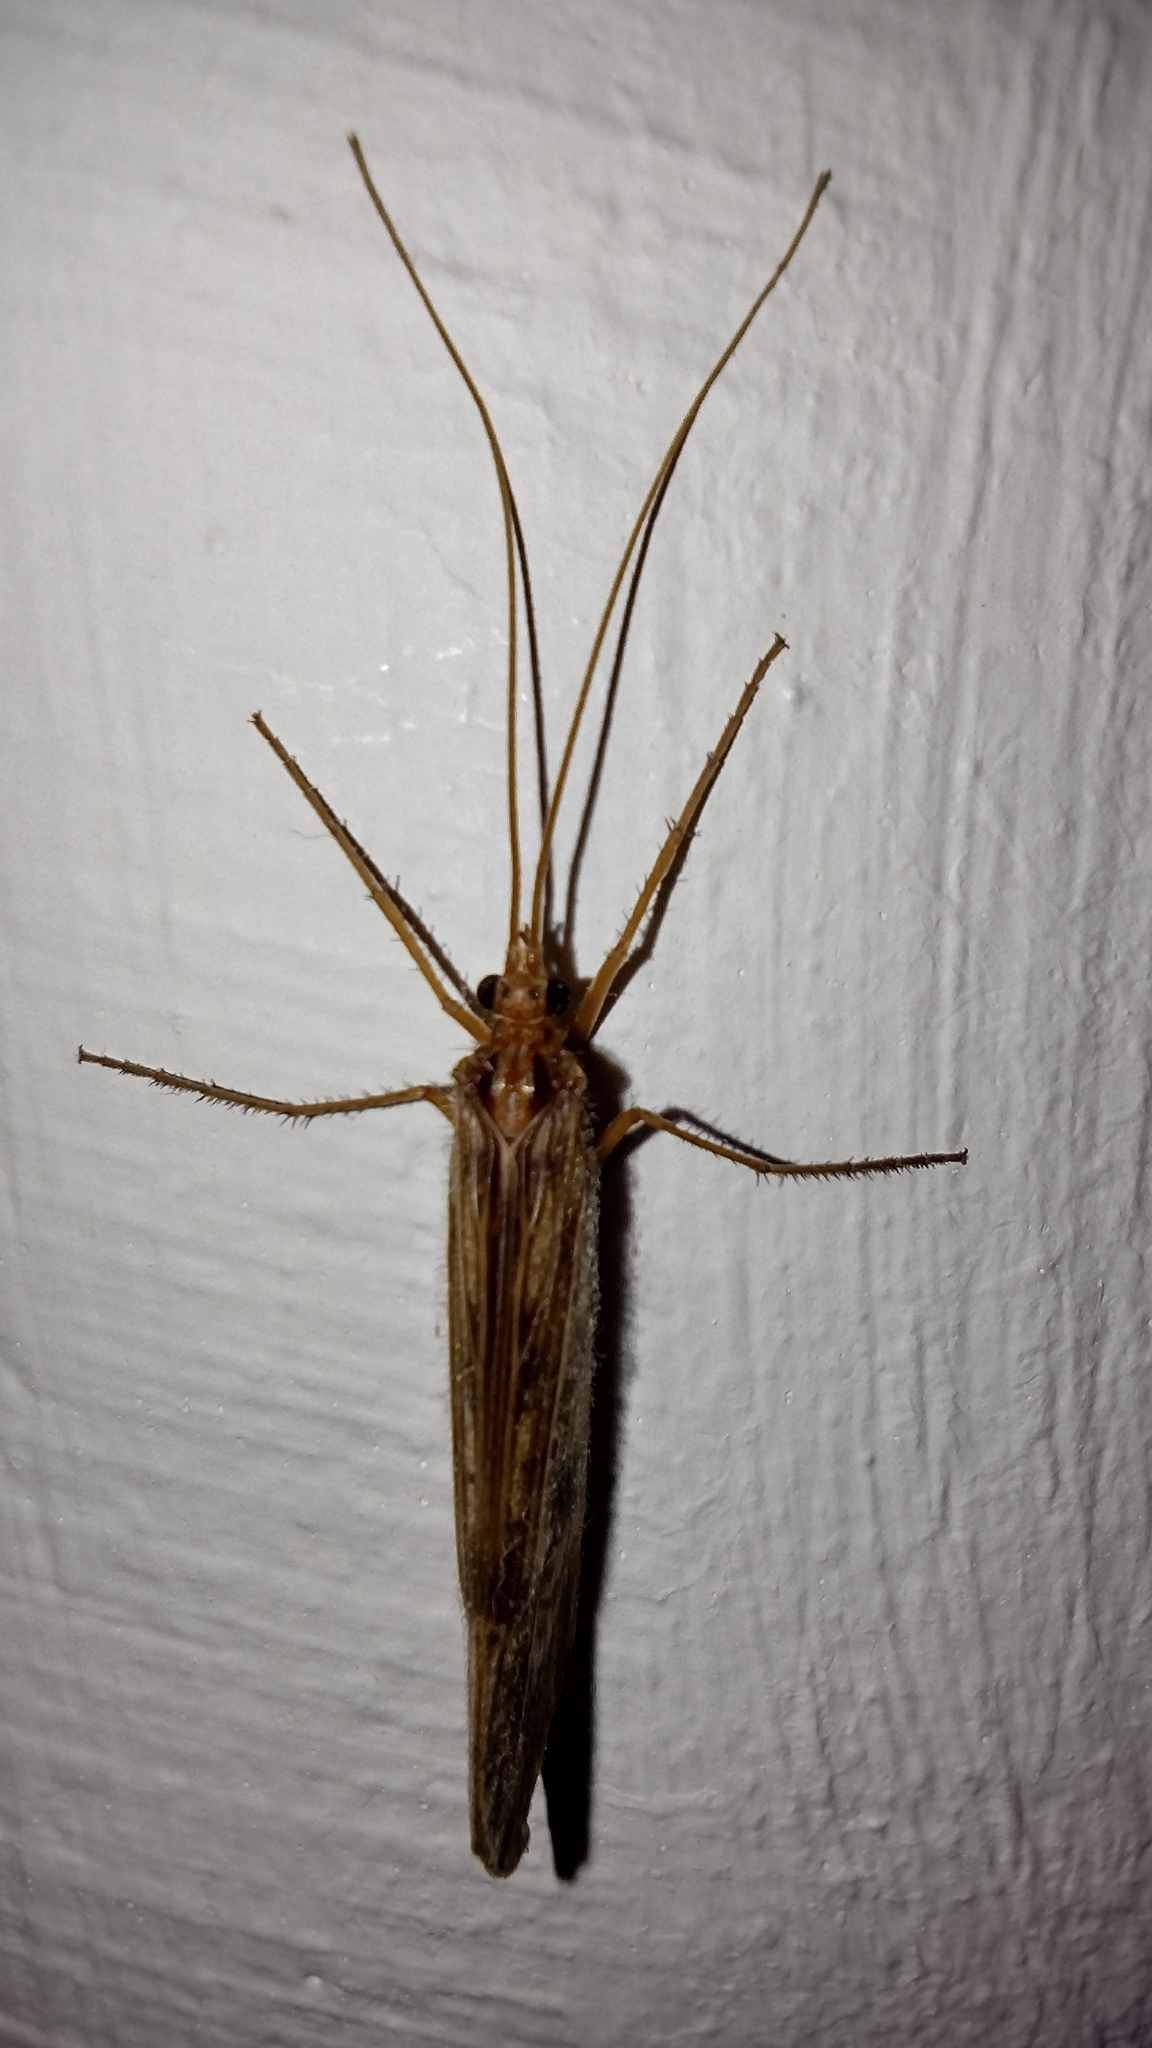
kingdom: Animalia
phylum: Arthropoda
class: Insecta
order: Trichoptera
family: Limnephilidae
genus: Halesus
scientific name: Halesus digitatus
